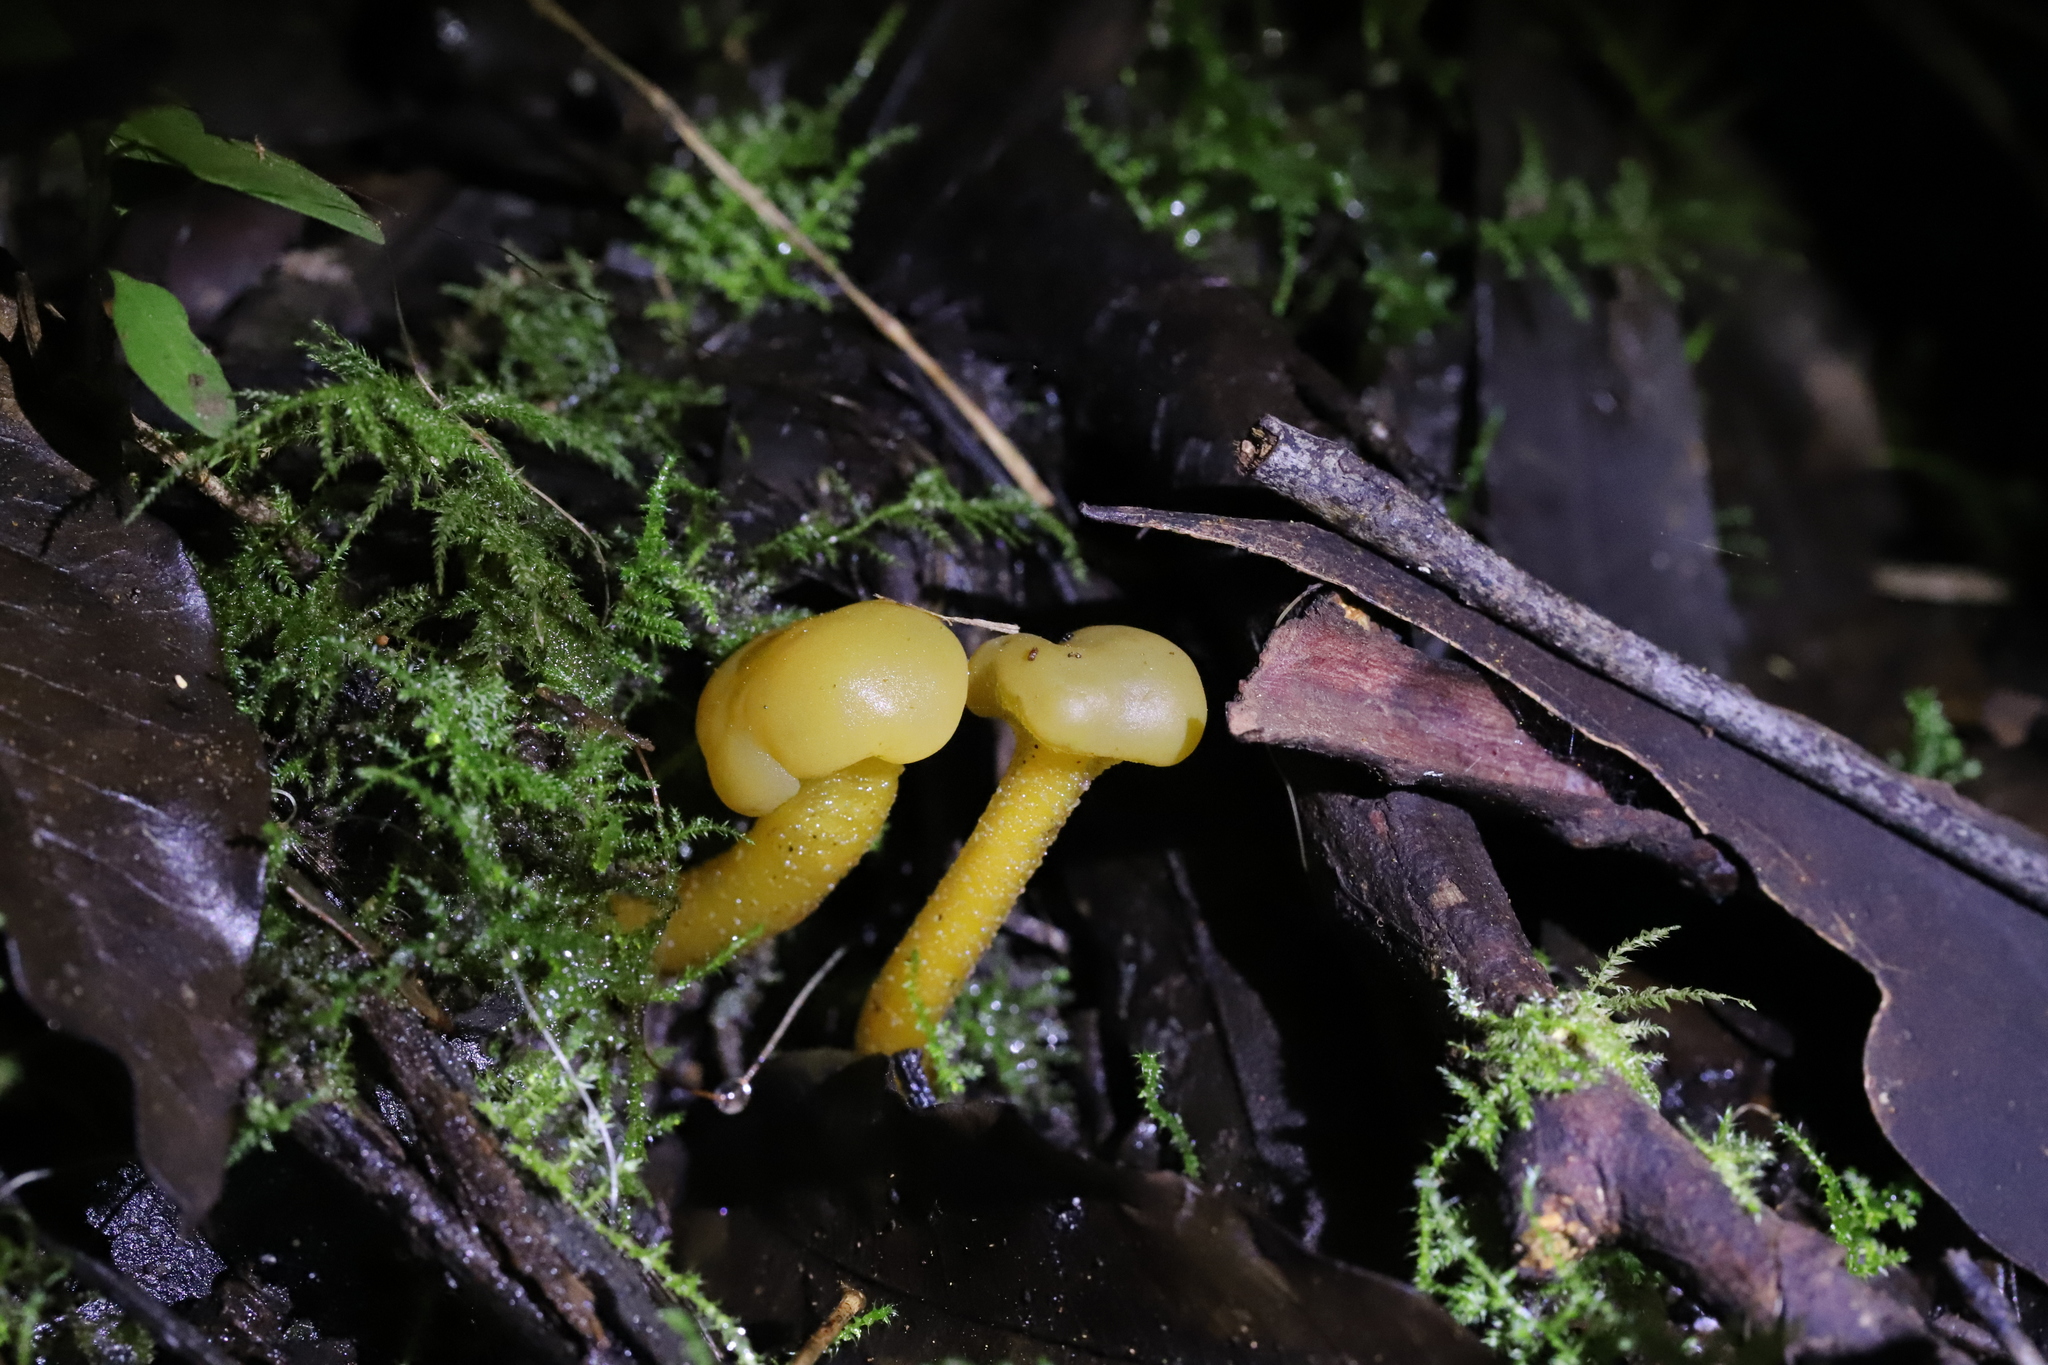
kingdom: Fungi
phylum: Ascomycota
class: Leotiomycetes
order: Leotiales
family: Leotiaceae
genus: Leotia
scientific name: Leotia lubrica
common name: Jellybaby
